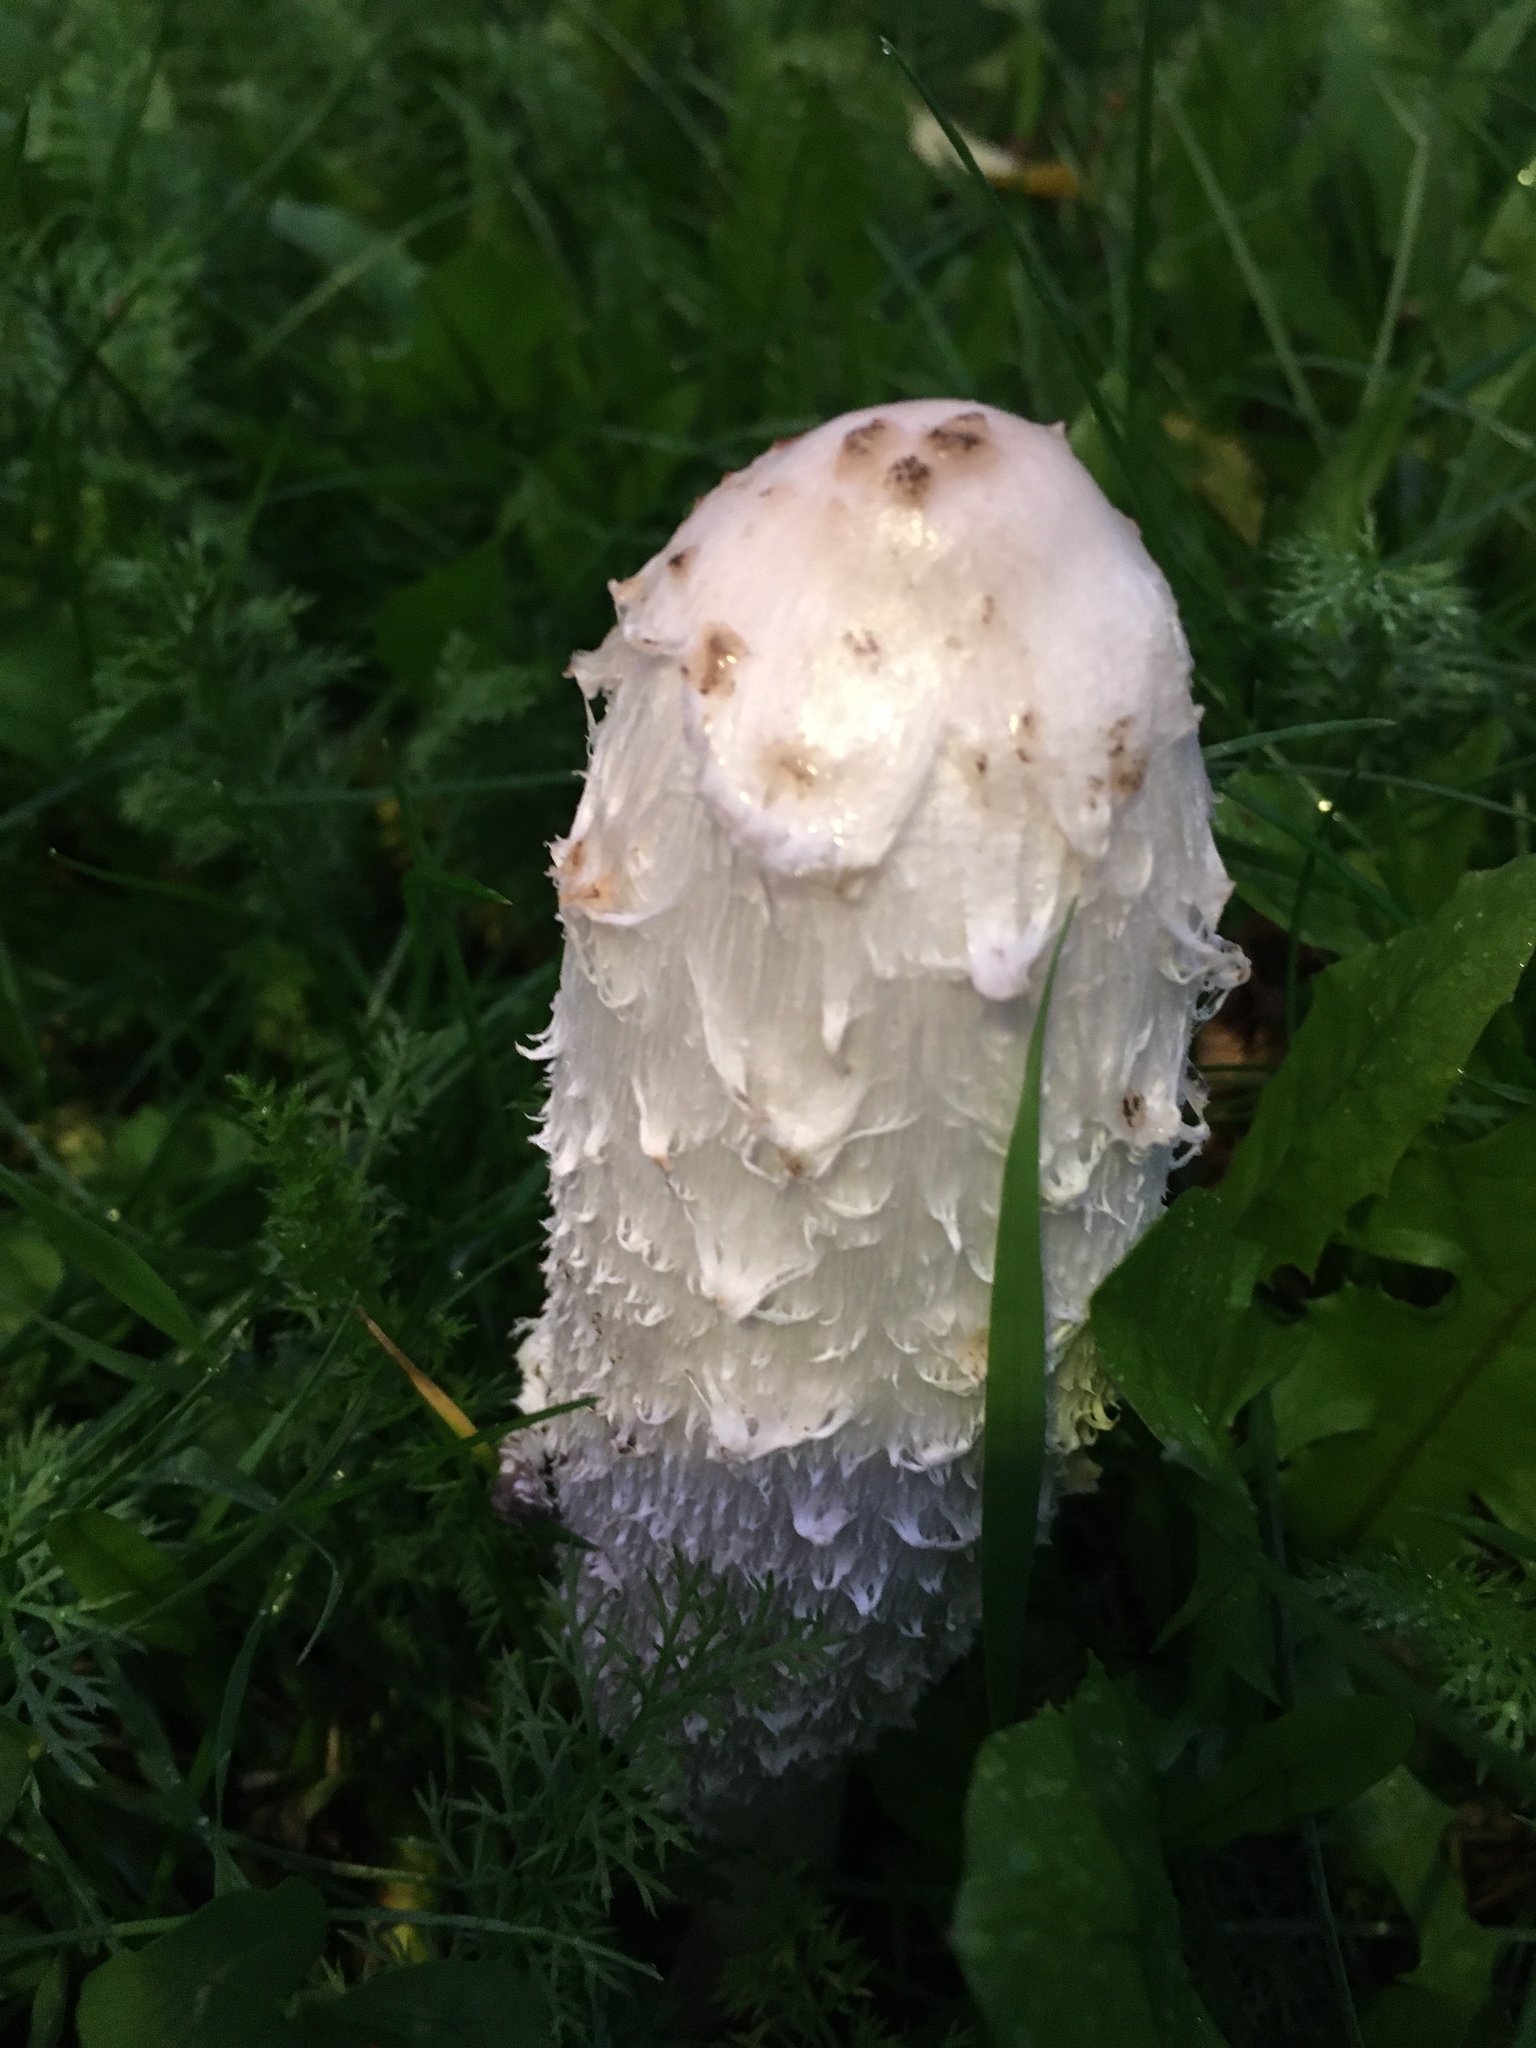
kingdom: Fungi
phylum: Basidiomycota
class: Agaricomycetes
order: Agaricales
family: Agaricaceae
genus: Coprinus
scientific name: Coprinus comatus
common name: Lawyer's wig
